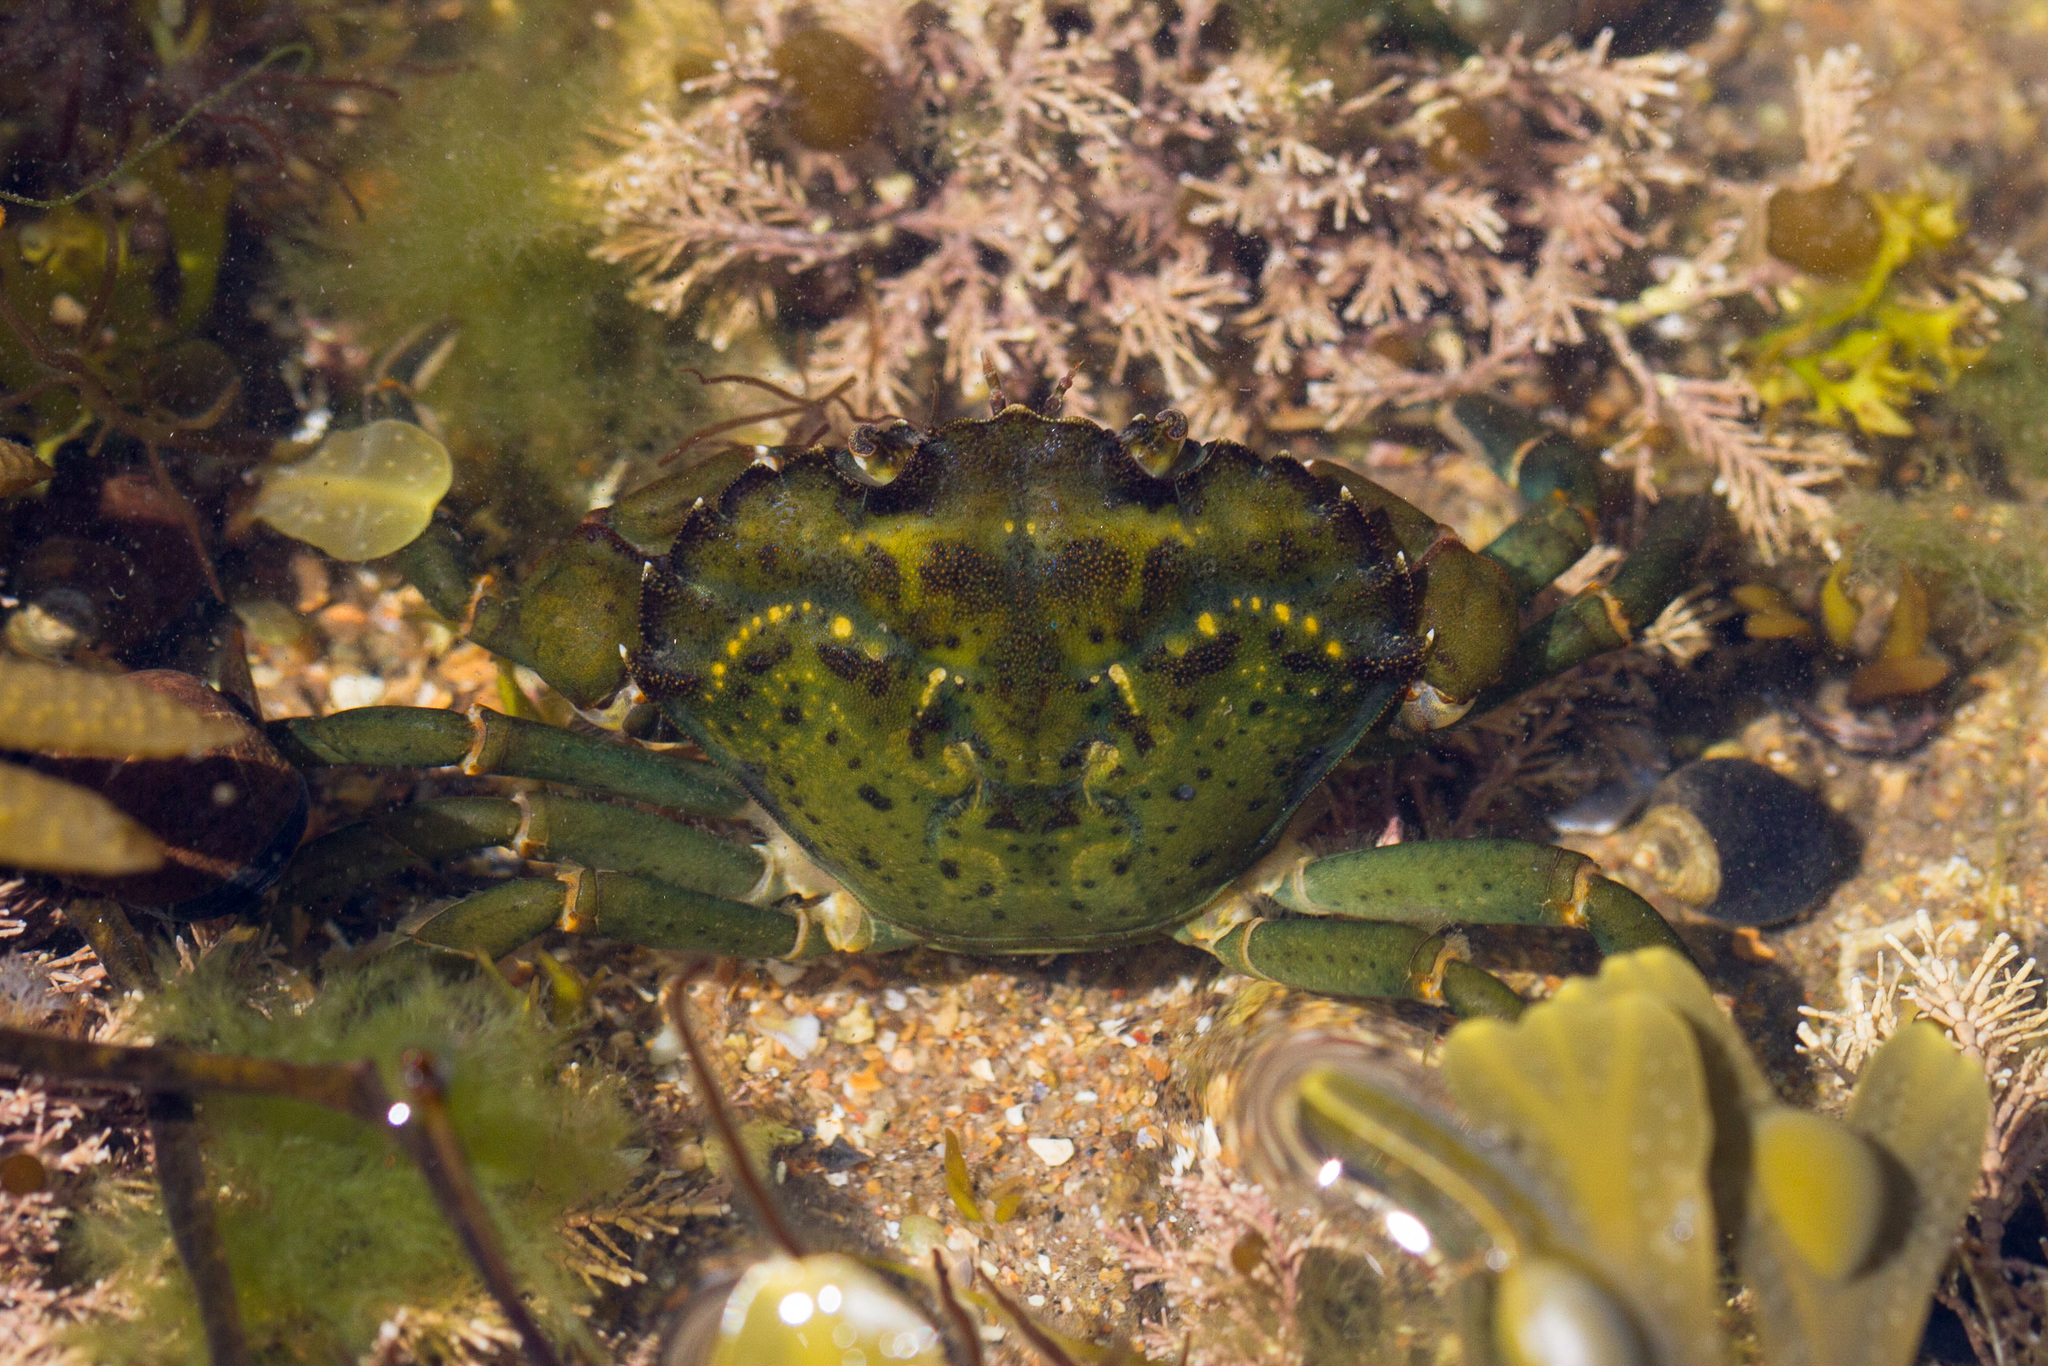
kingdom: Animalia
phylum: Arthropoda
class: Malacostraca
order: Decapoda
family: Carcinidae
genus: Carcinus
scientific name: Carcinus maenas
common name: European green crab
